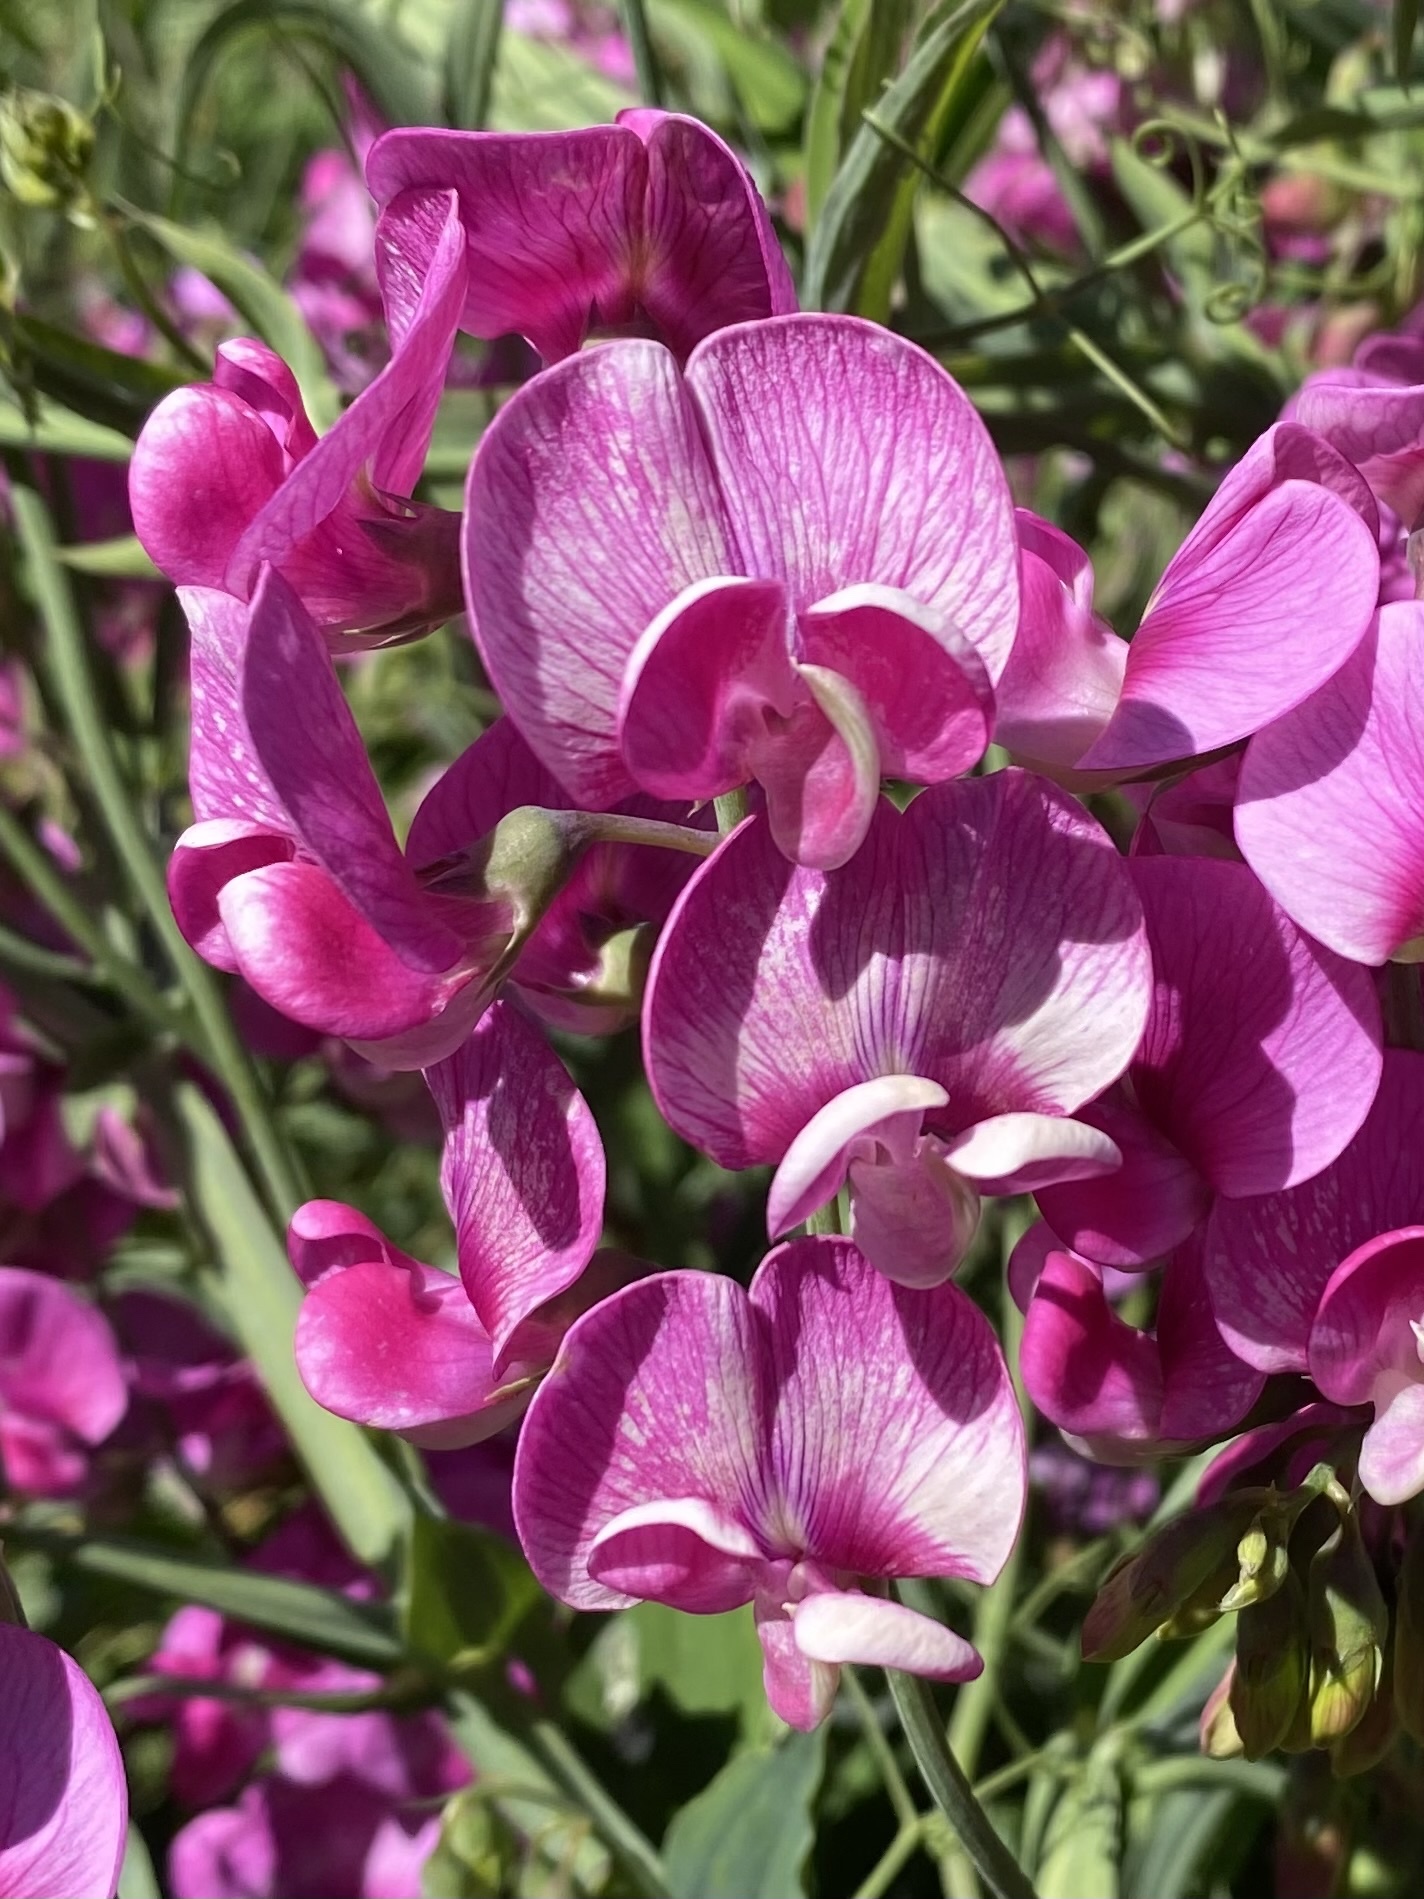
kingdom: Plantae
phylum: Tracheophyta
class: Magnoliopsida
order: Fabales
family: Fabaceae
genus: Lathyrus
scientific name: Lathyrus latifolius
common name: Perennial pea
